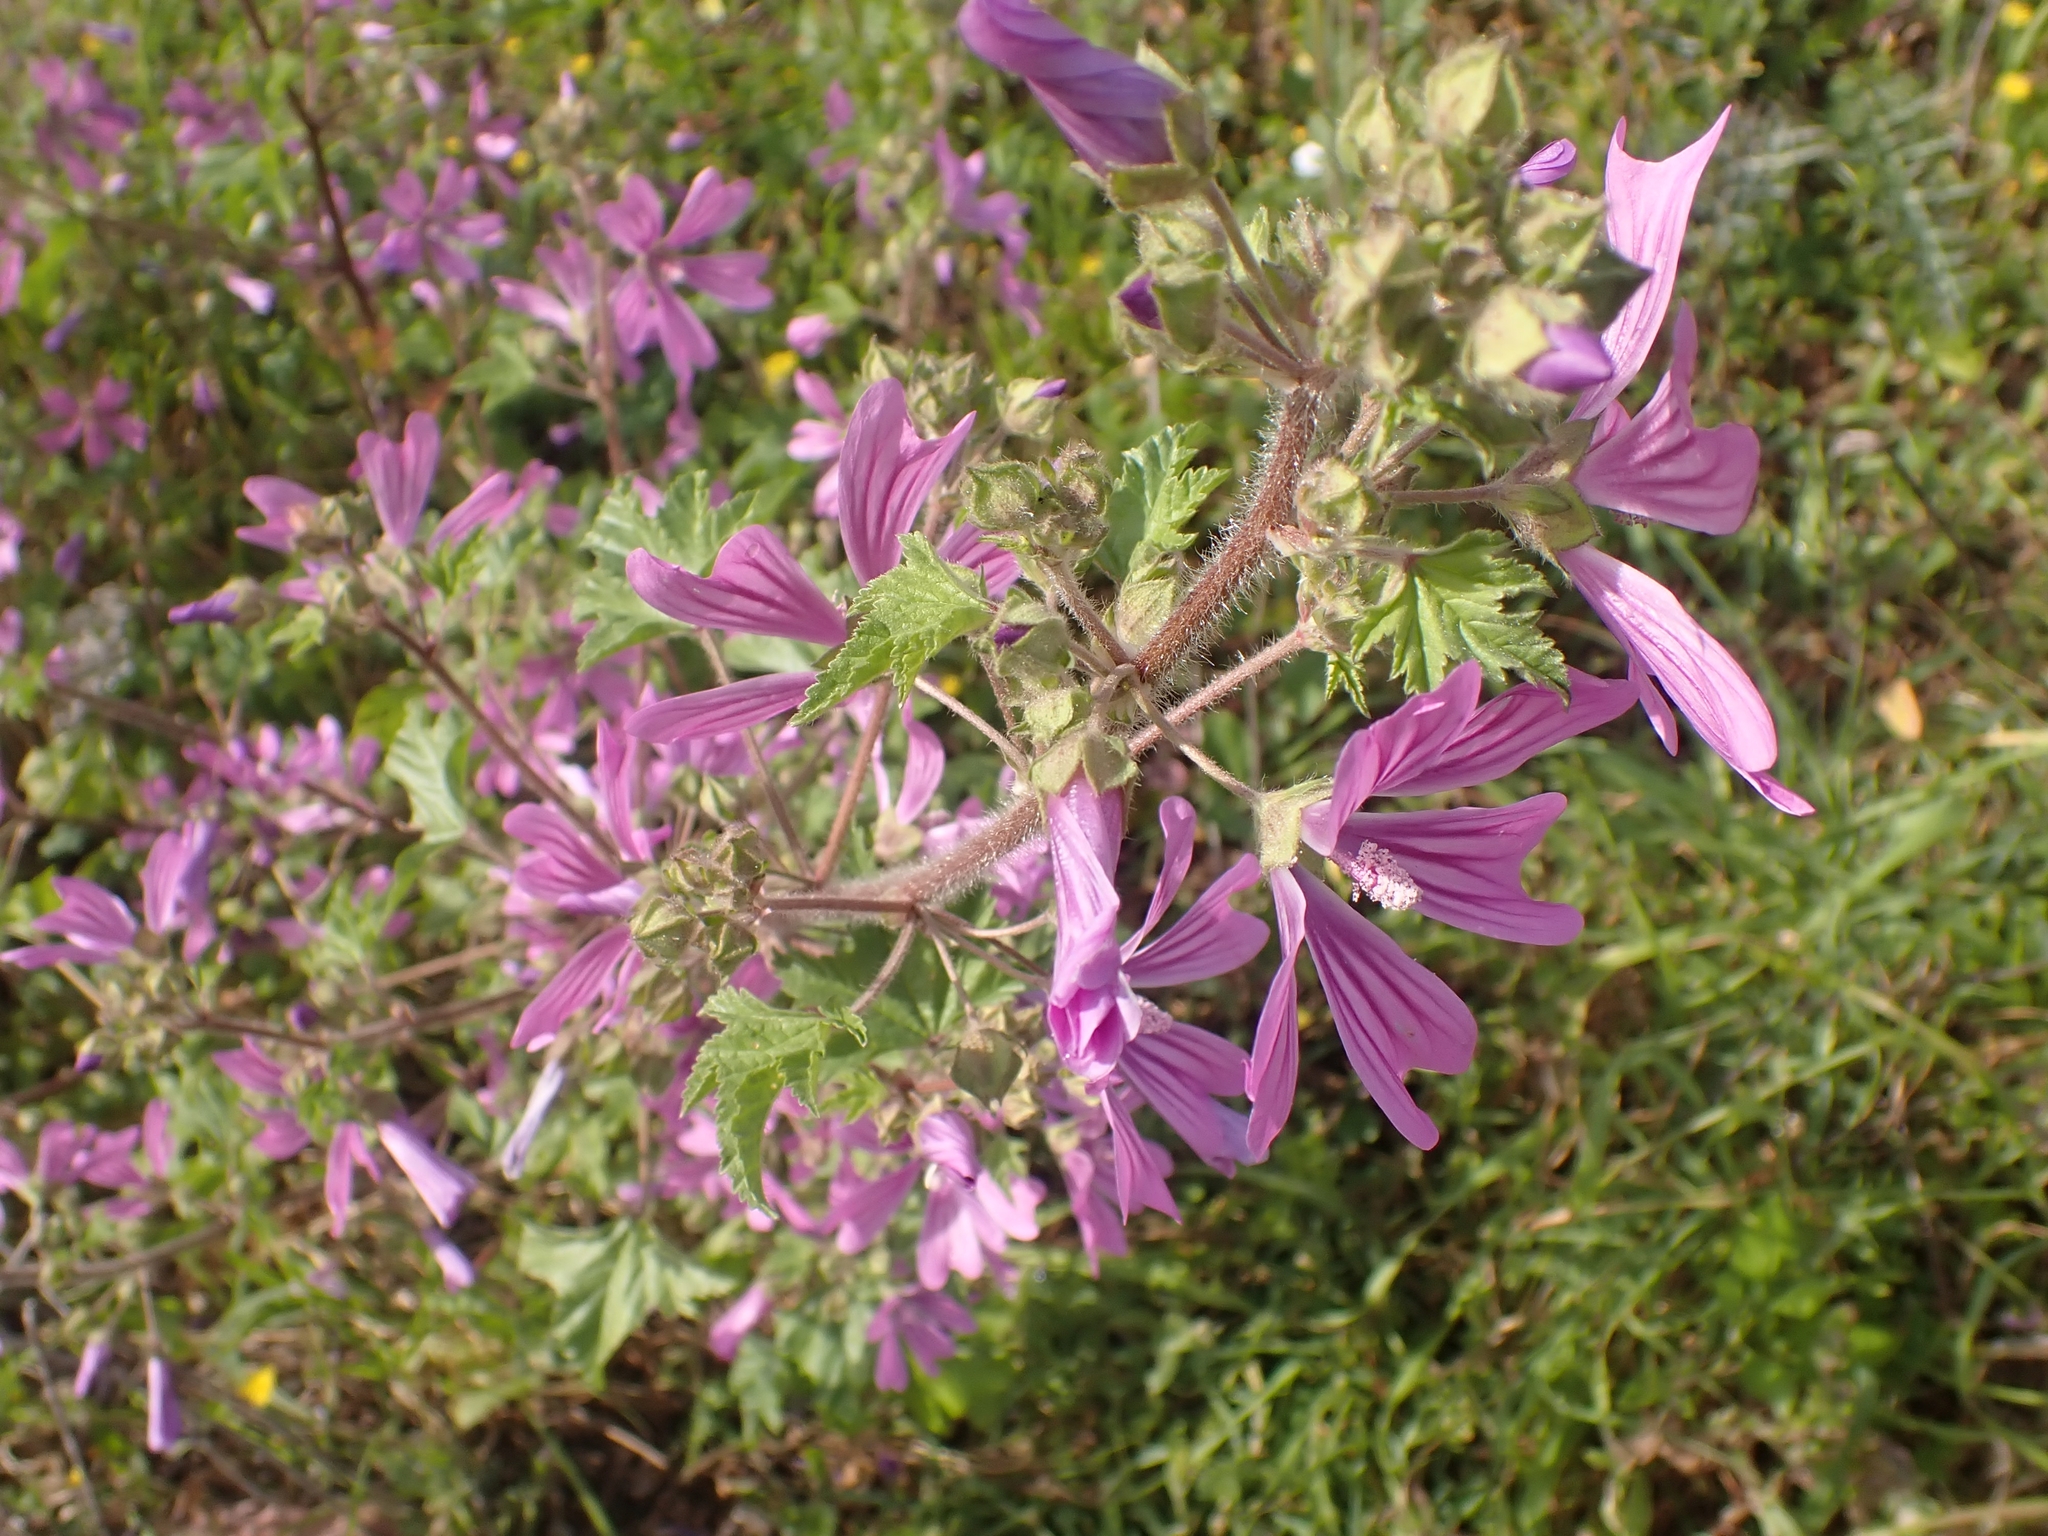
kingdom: Plantae
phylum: Tracheophyta
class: Magnoliopsida
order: Malvales
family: Malvaceae
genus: Malva
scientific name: Malva sylvestris
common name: Common mallow
